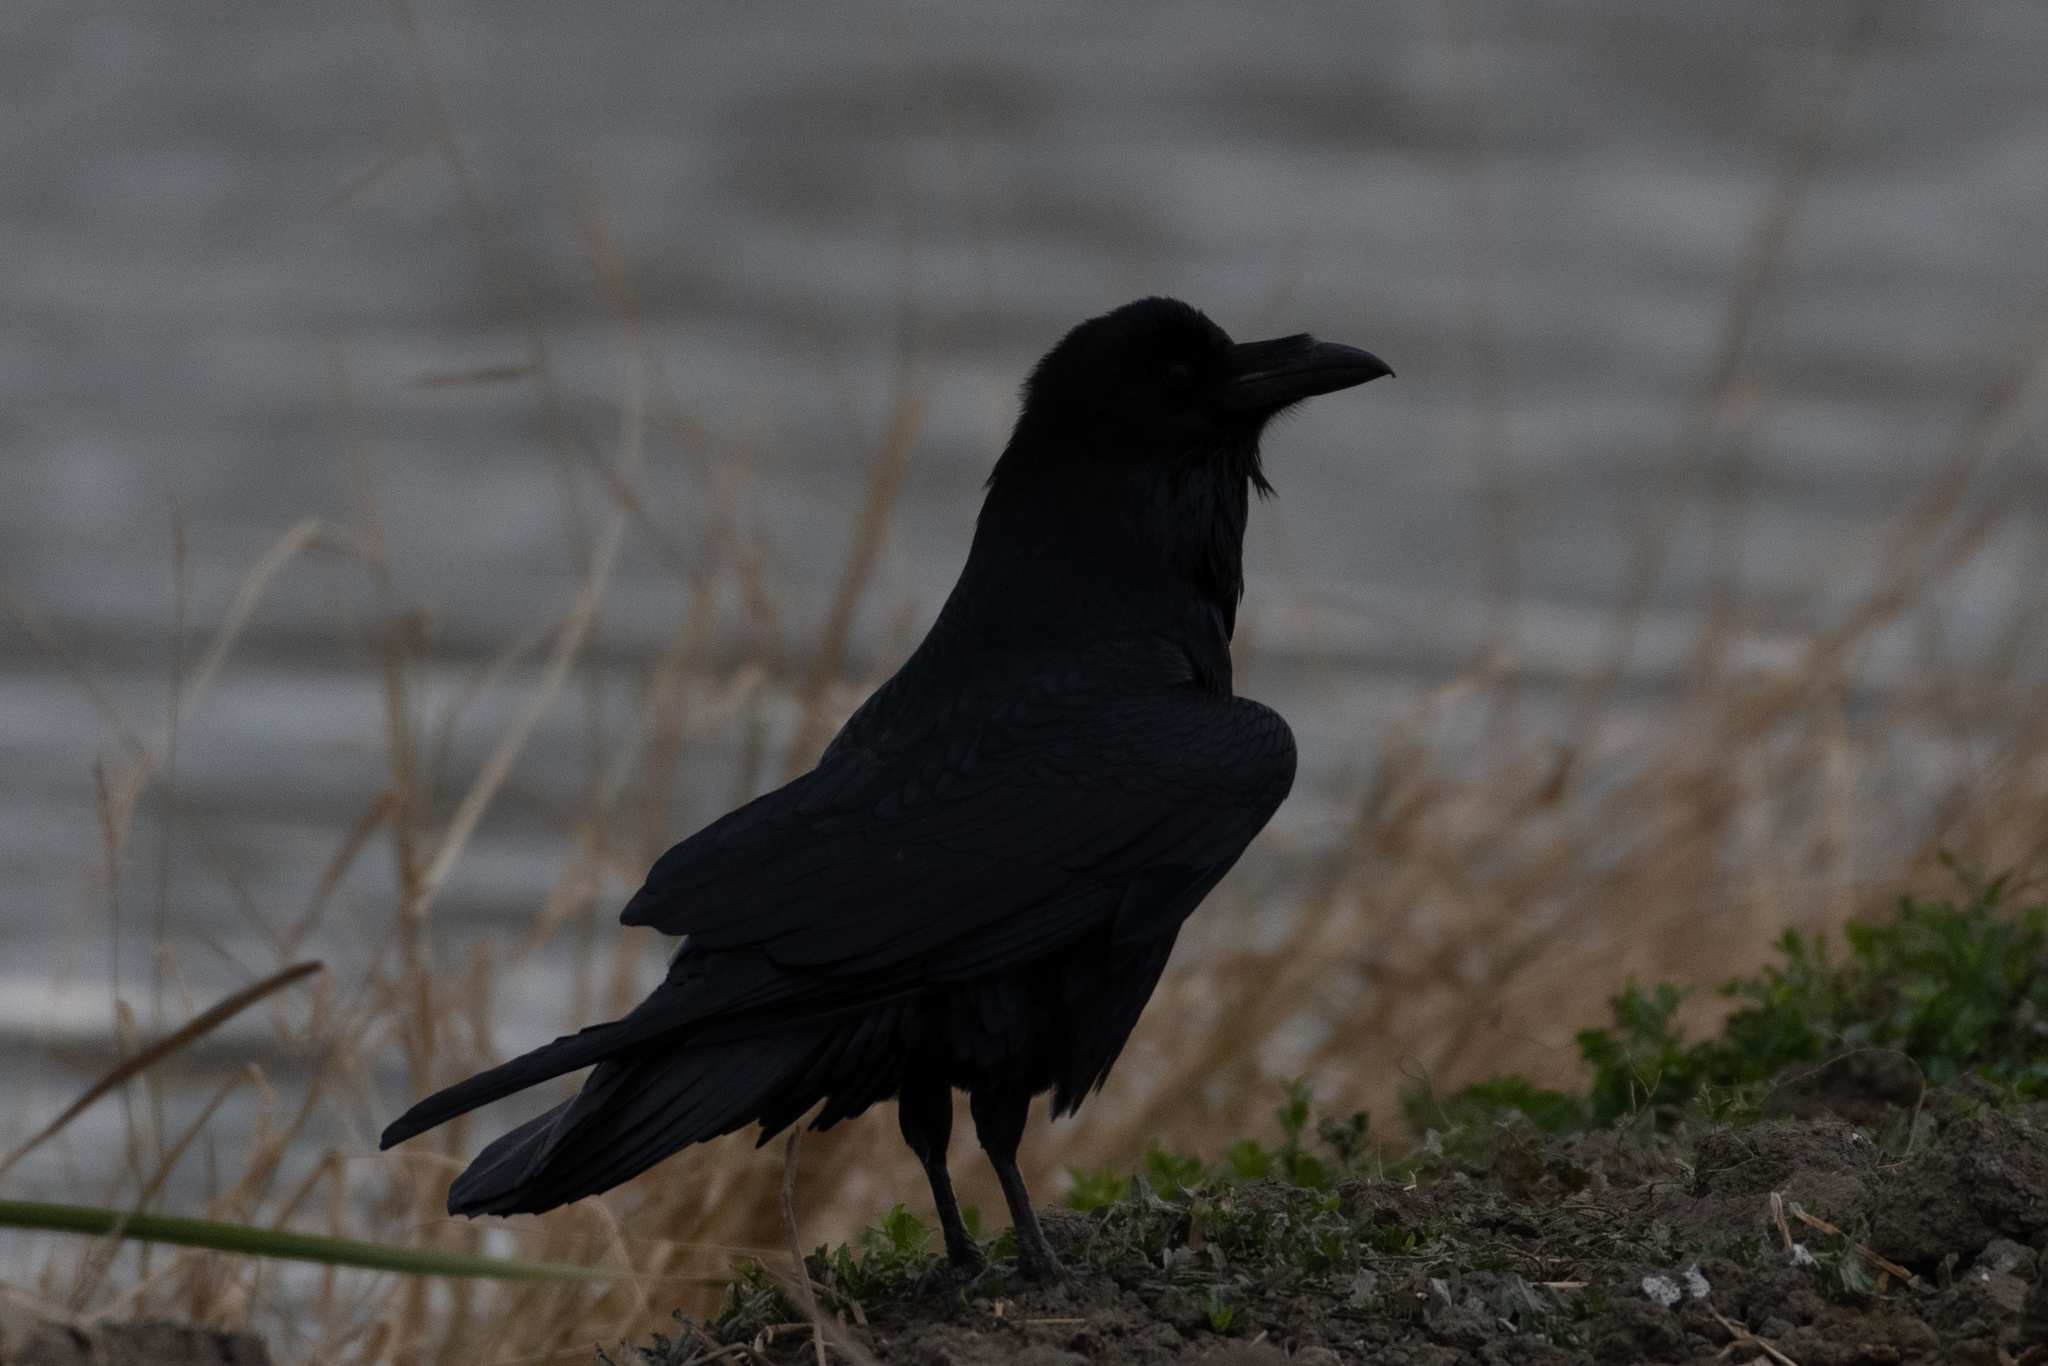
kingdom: Animalia
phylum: Chordata
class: Aves
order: Passeriformes
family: Corvidae
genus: Corvus
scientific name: Corvus corax
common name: Common raven
